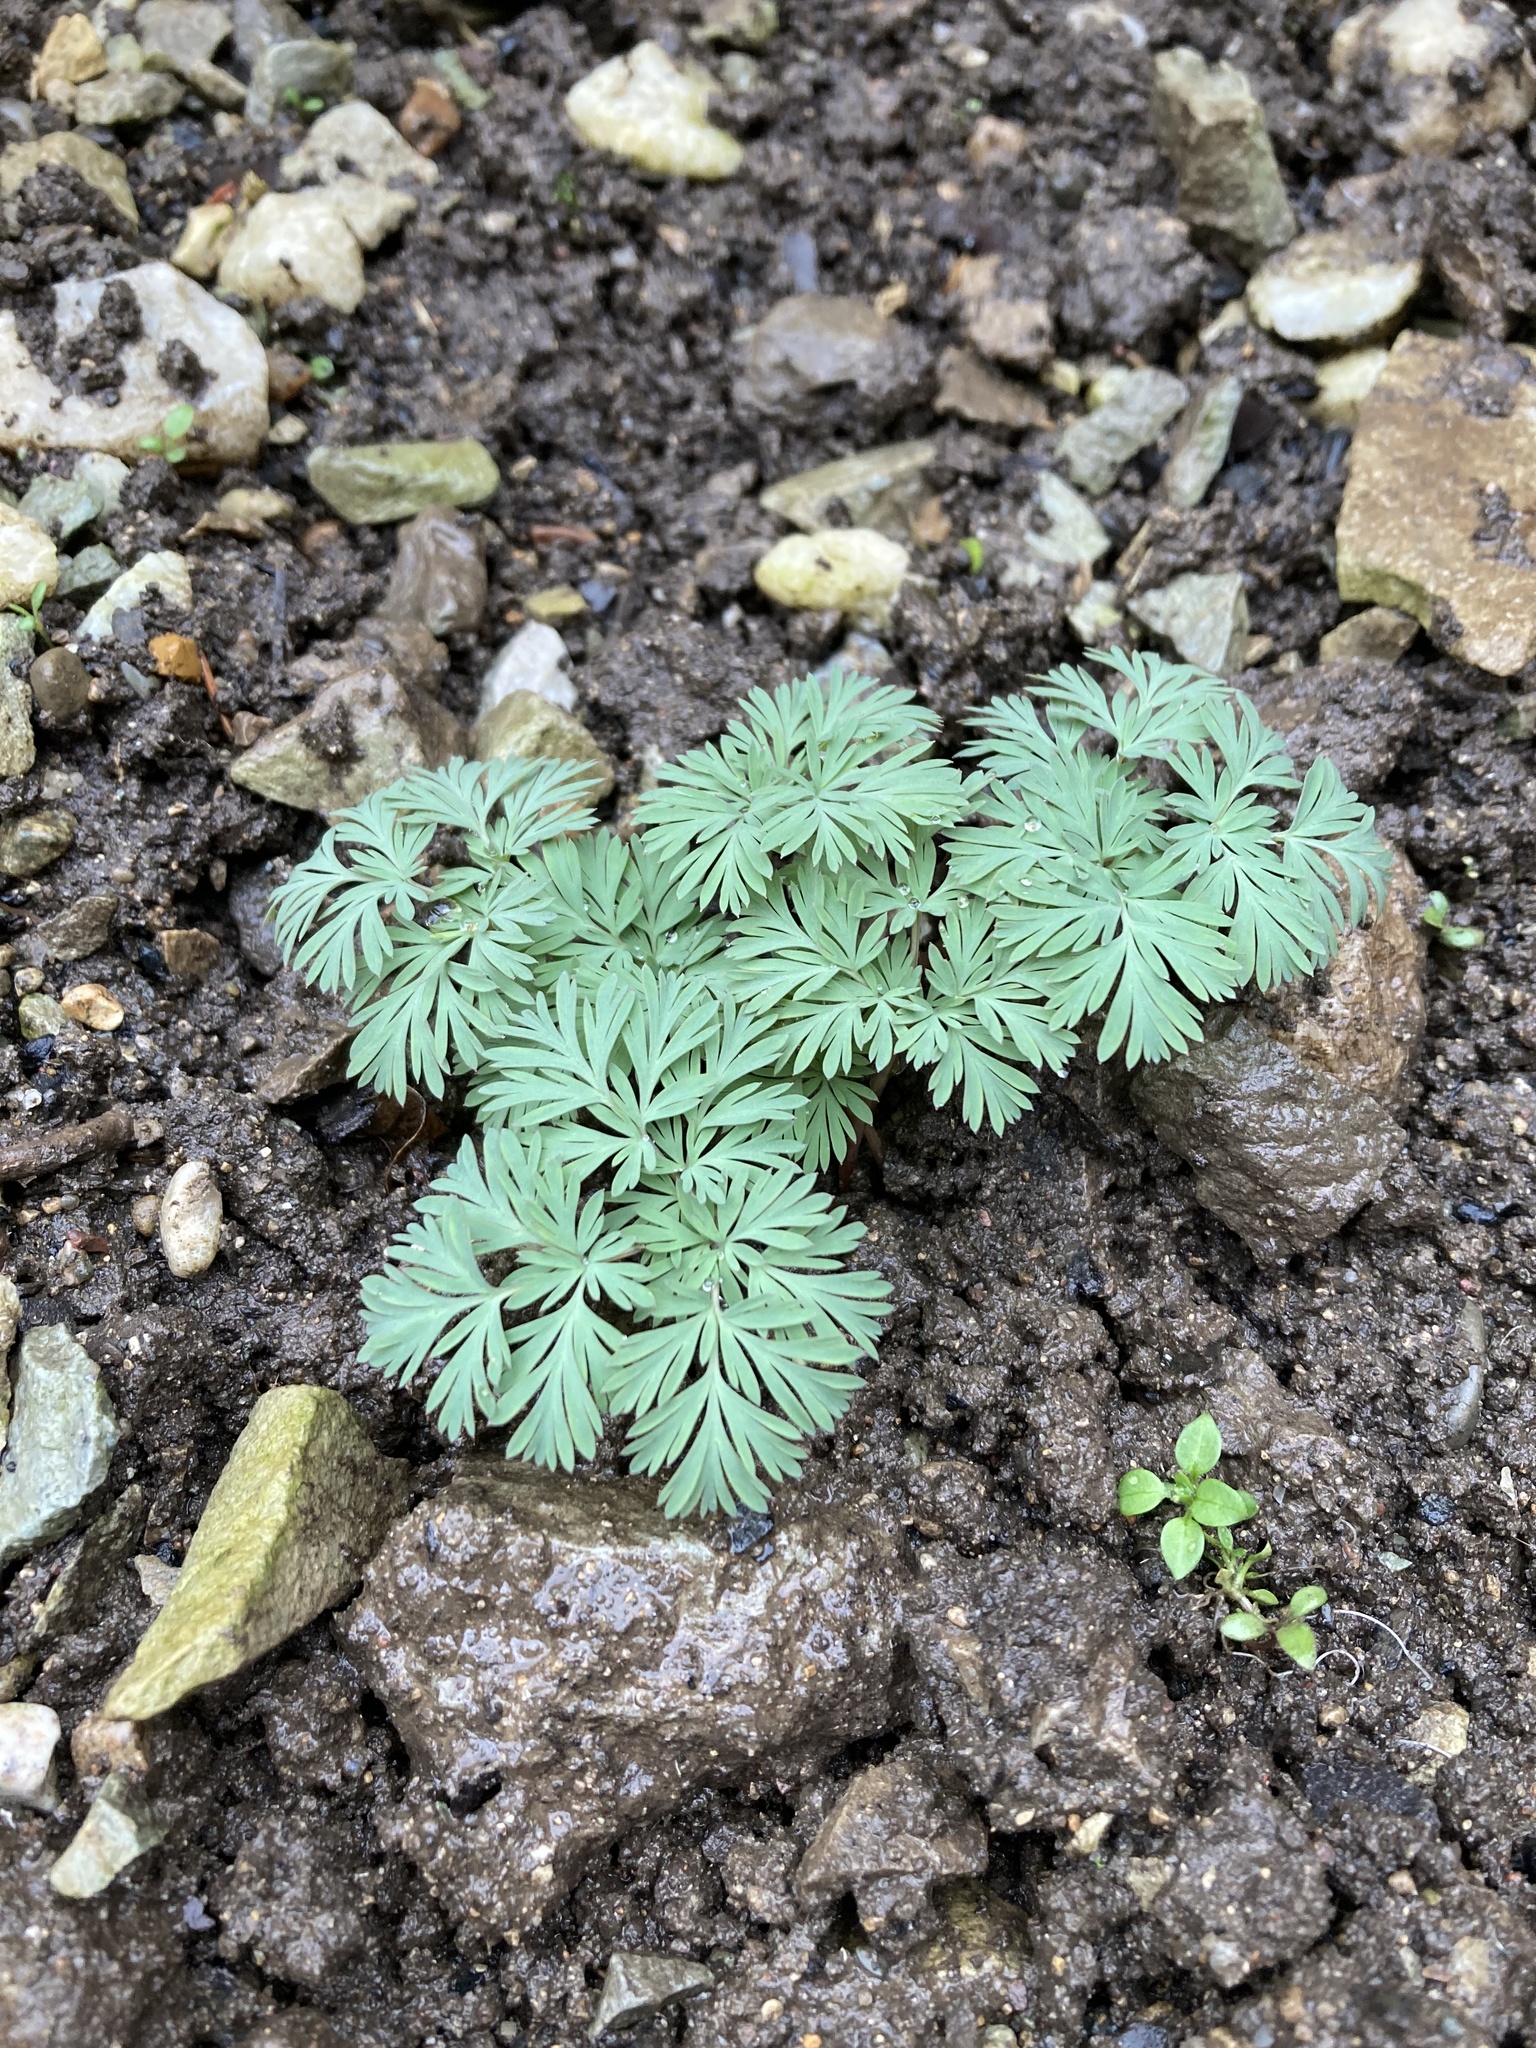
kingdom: Plantae
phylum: Tracheophyta
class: Magnoliopsida
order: Ranunculales
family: Papaveraceae
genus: Dicentra
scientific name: Dicentra cucullaria
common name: Dutchman's breeches
